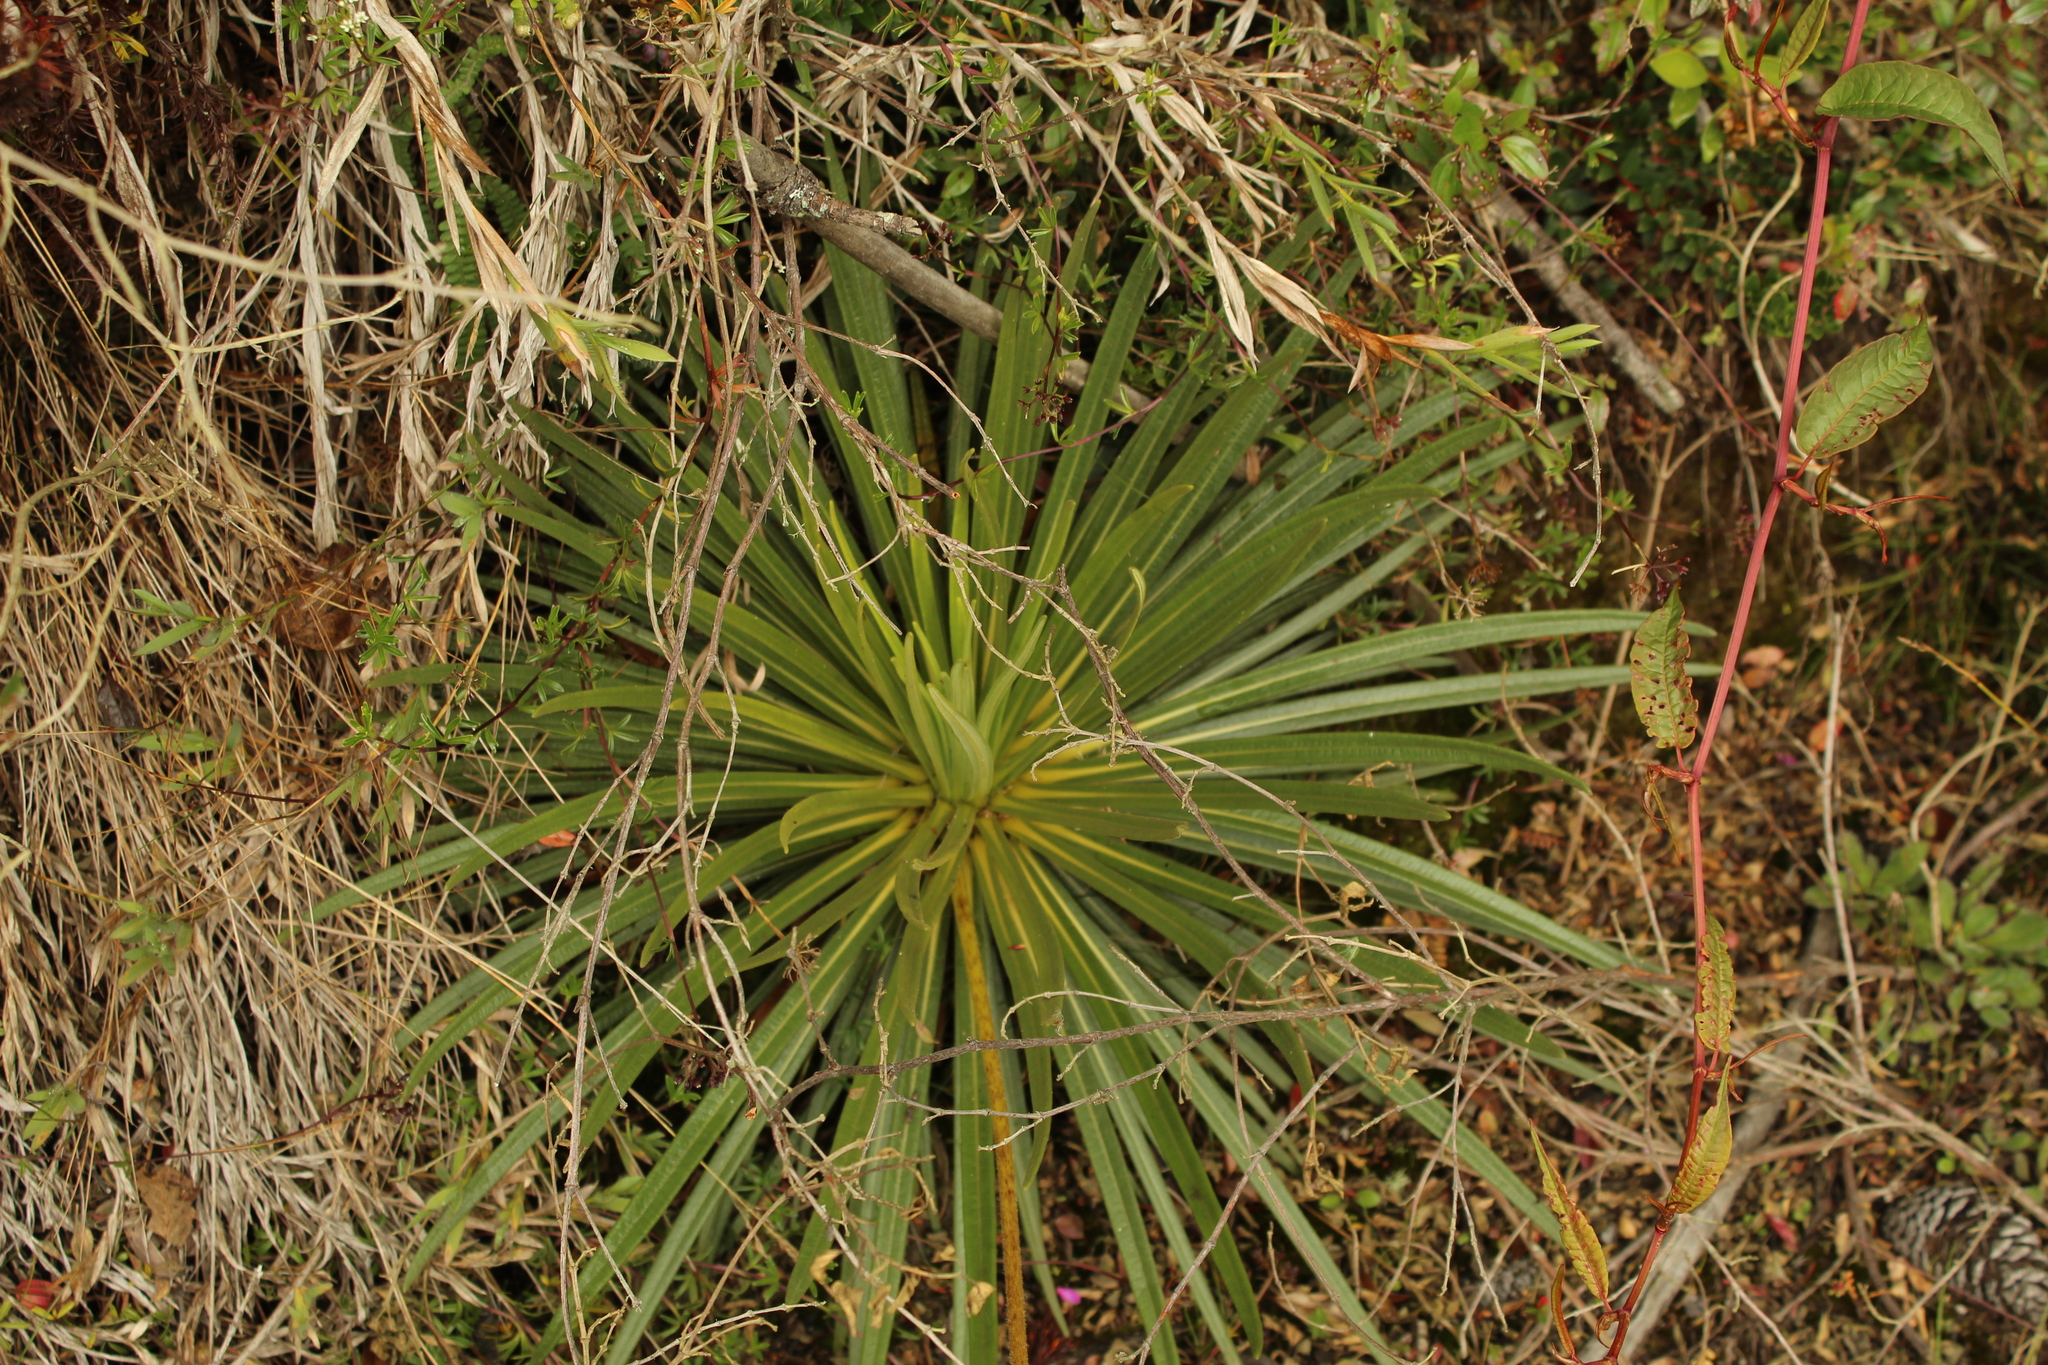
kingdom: Plantae
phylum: Tracheophyta
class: Magnoliopsida
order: Asterales
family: Asteraceae
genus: Espeletia
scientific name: Espeletia glandulosa
